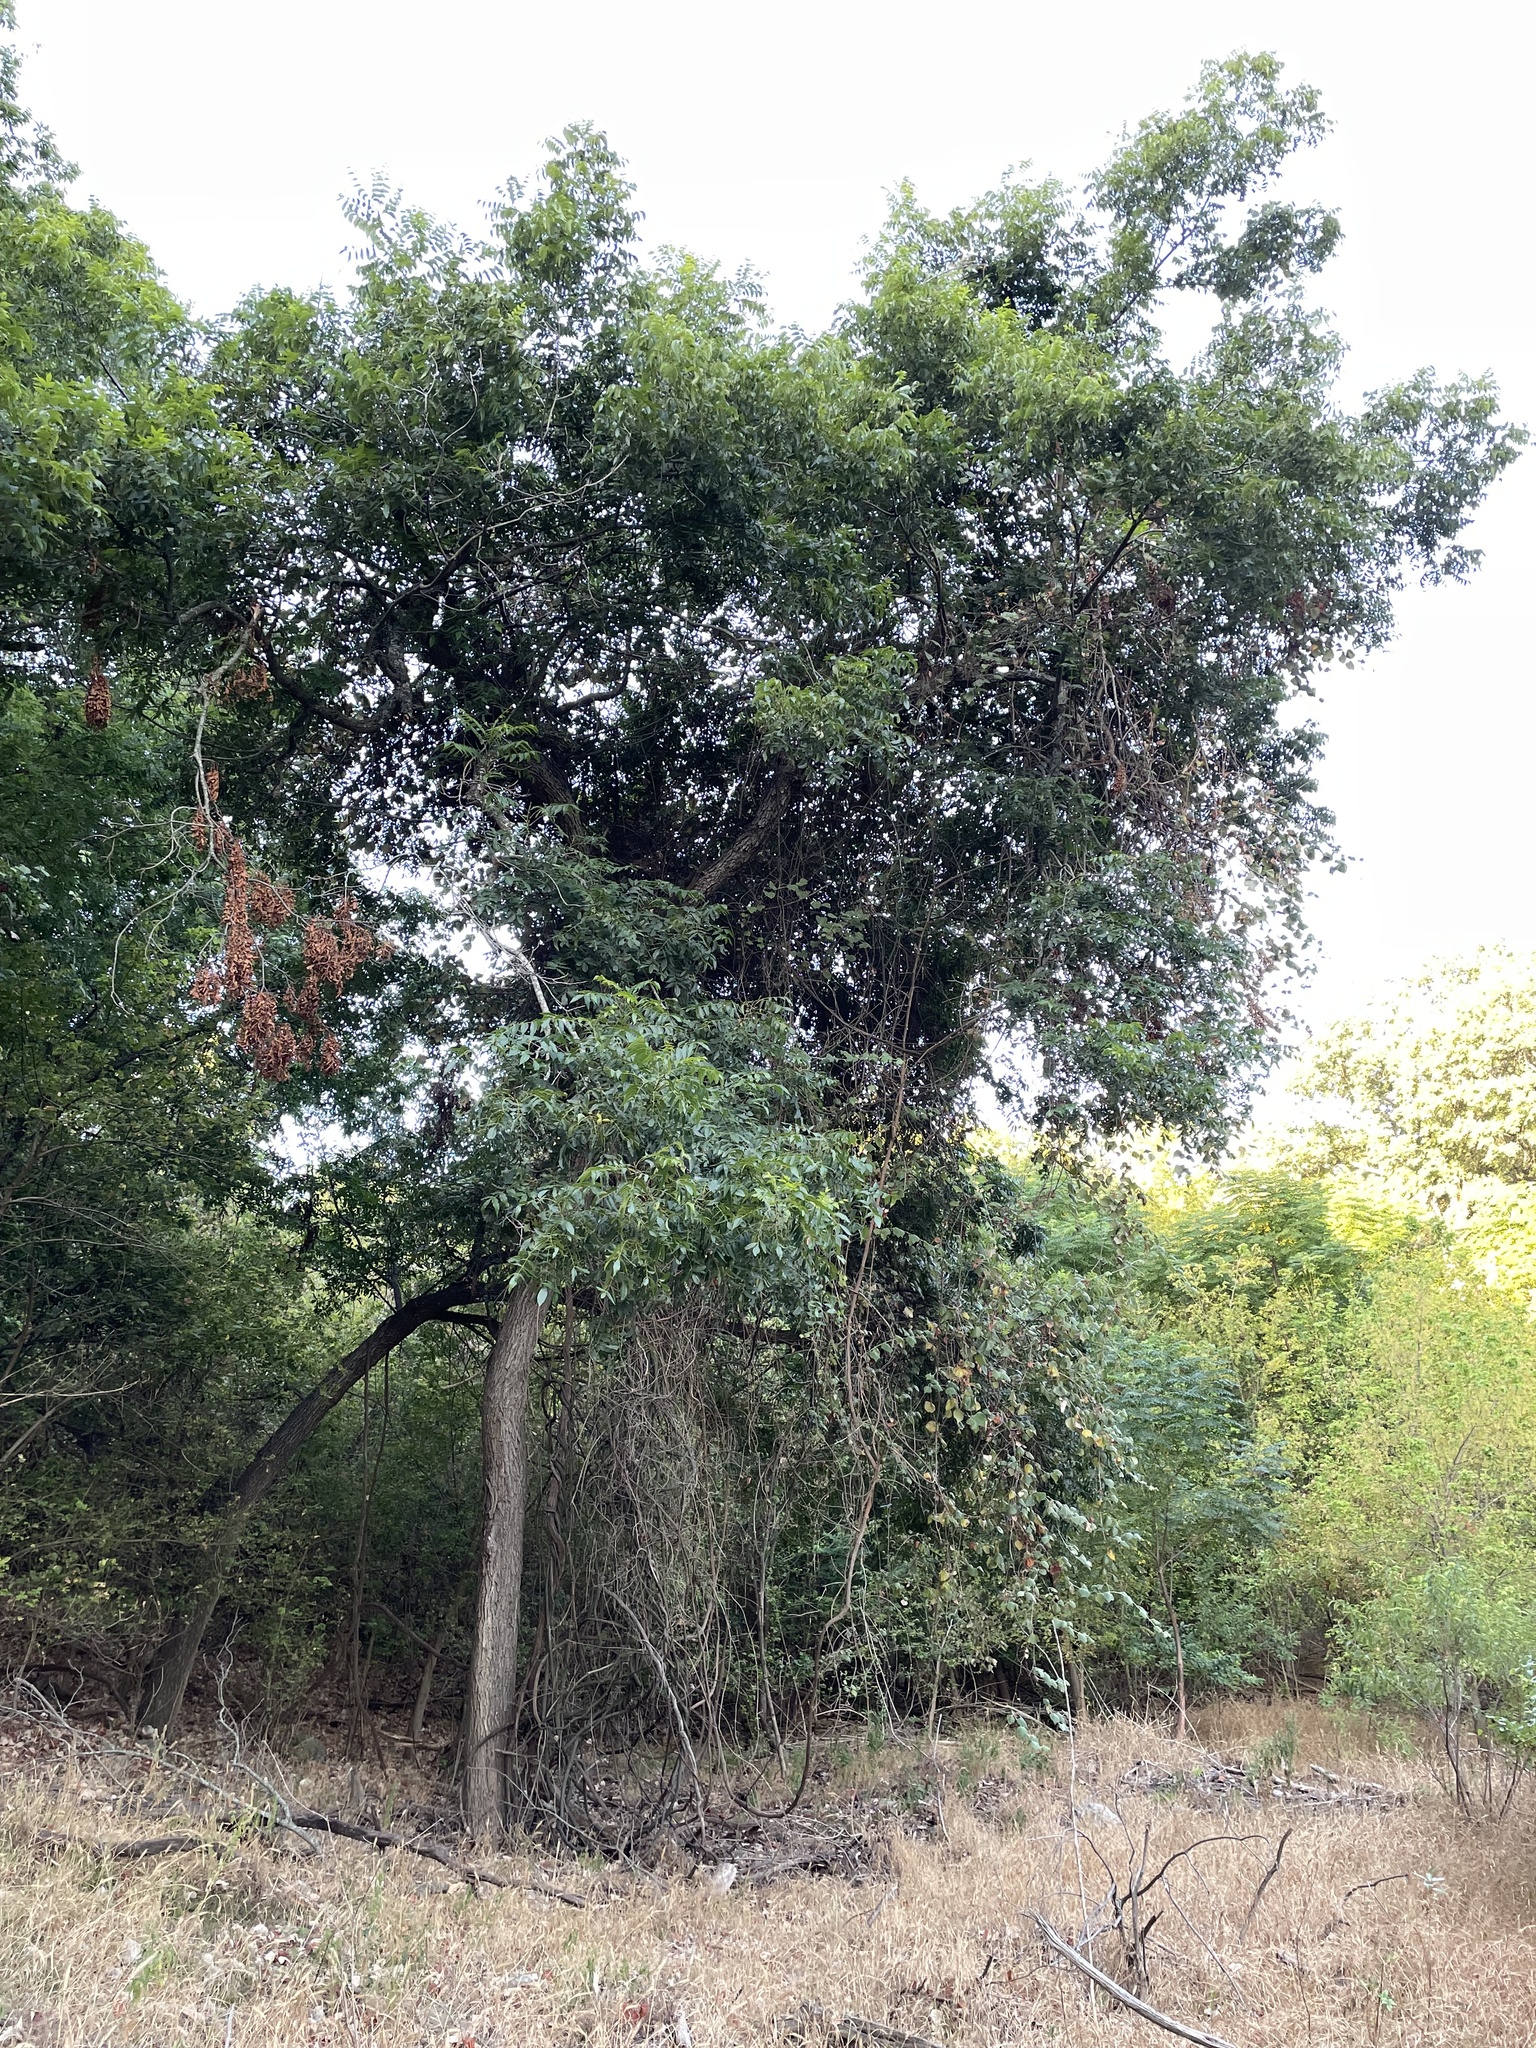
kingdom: Plantae
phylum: Tracheophyta
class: Magnoliopsida
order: Fagales
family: Juglandaceae
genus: Carya
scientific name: Carya illinoinensis
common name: Pecan
